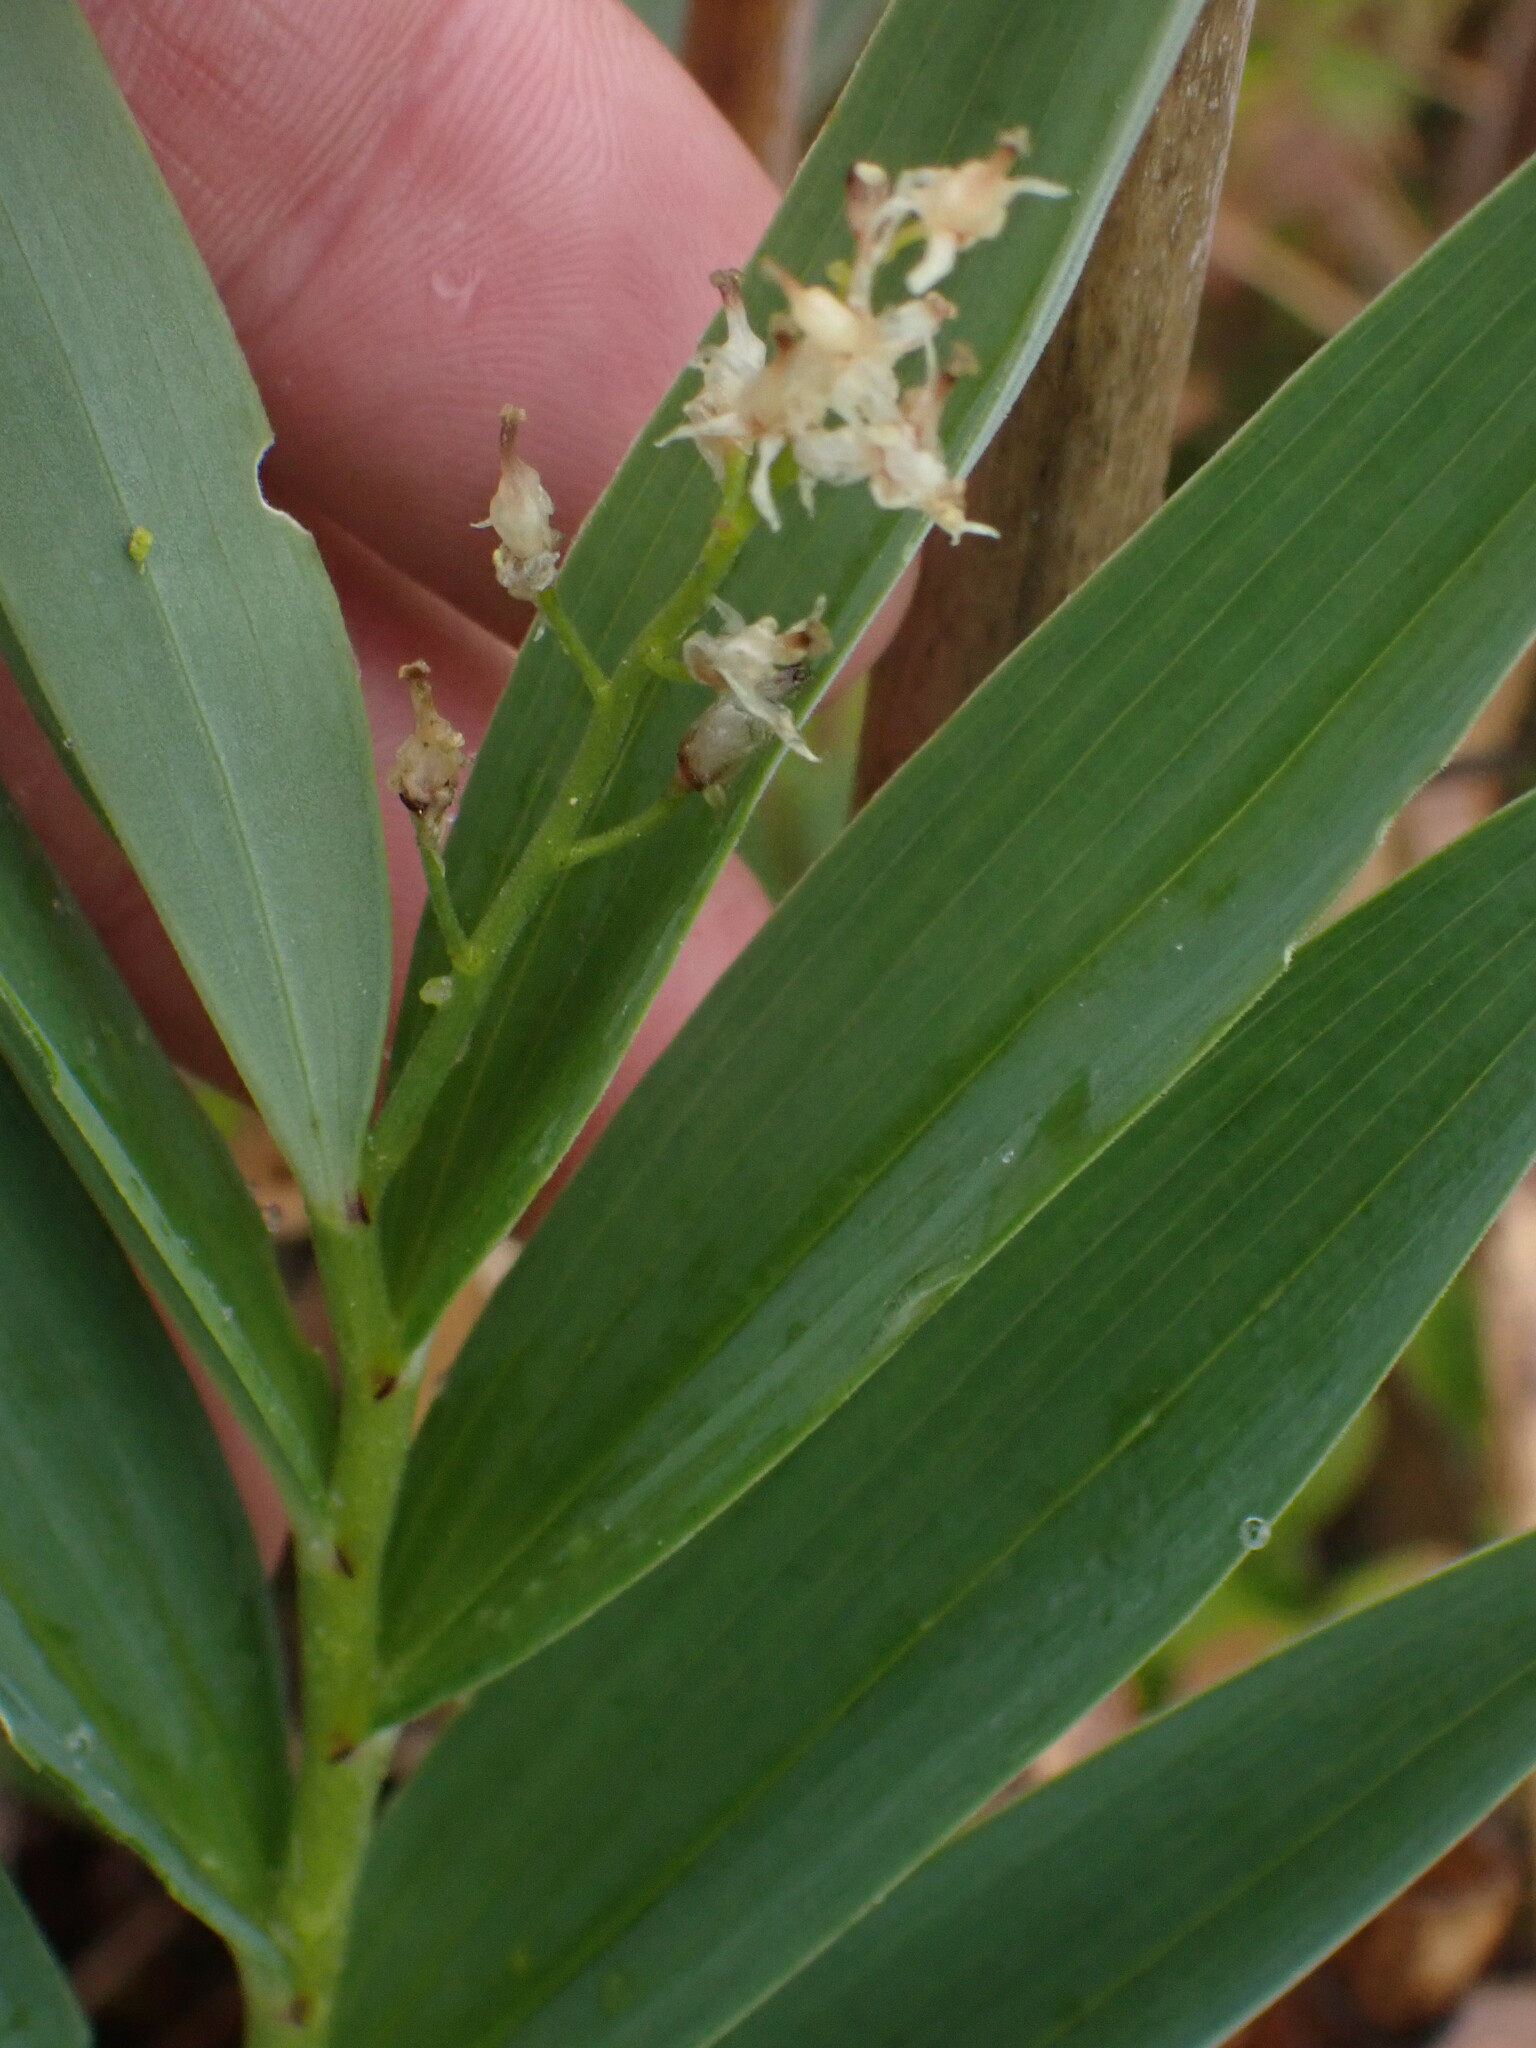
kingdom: Plantae
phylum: Tracheophyta
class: Liliopsida
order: Asparagales
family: Asparagaceae
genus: Maianthemum
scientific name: Maianthemum stellatum
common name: Little false solomon's seal
